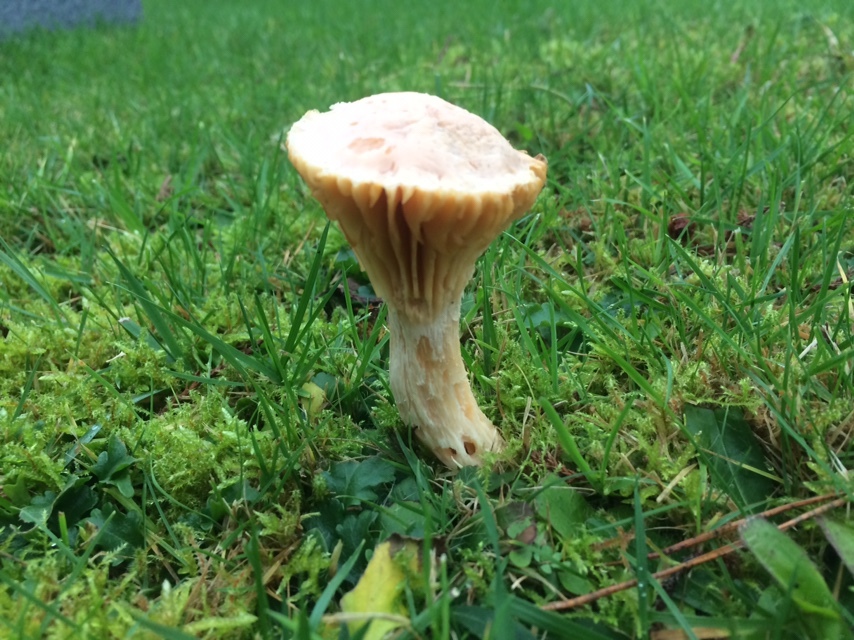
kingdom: Fungi
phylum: Basidiomycota
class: Agaricomycetes
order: Agaricales
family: Hygrophoraceae
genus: Cuphophyllus
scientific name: Cuphophyllus pratensis
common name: Meadow waxcap
